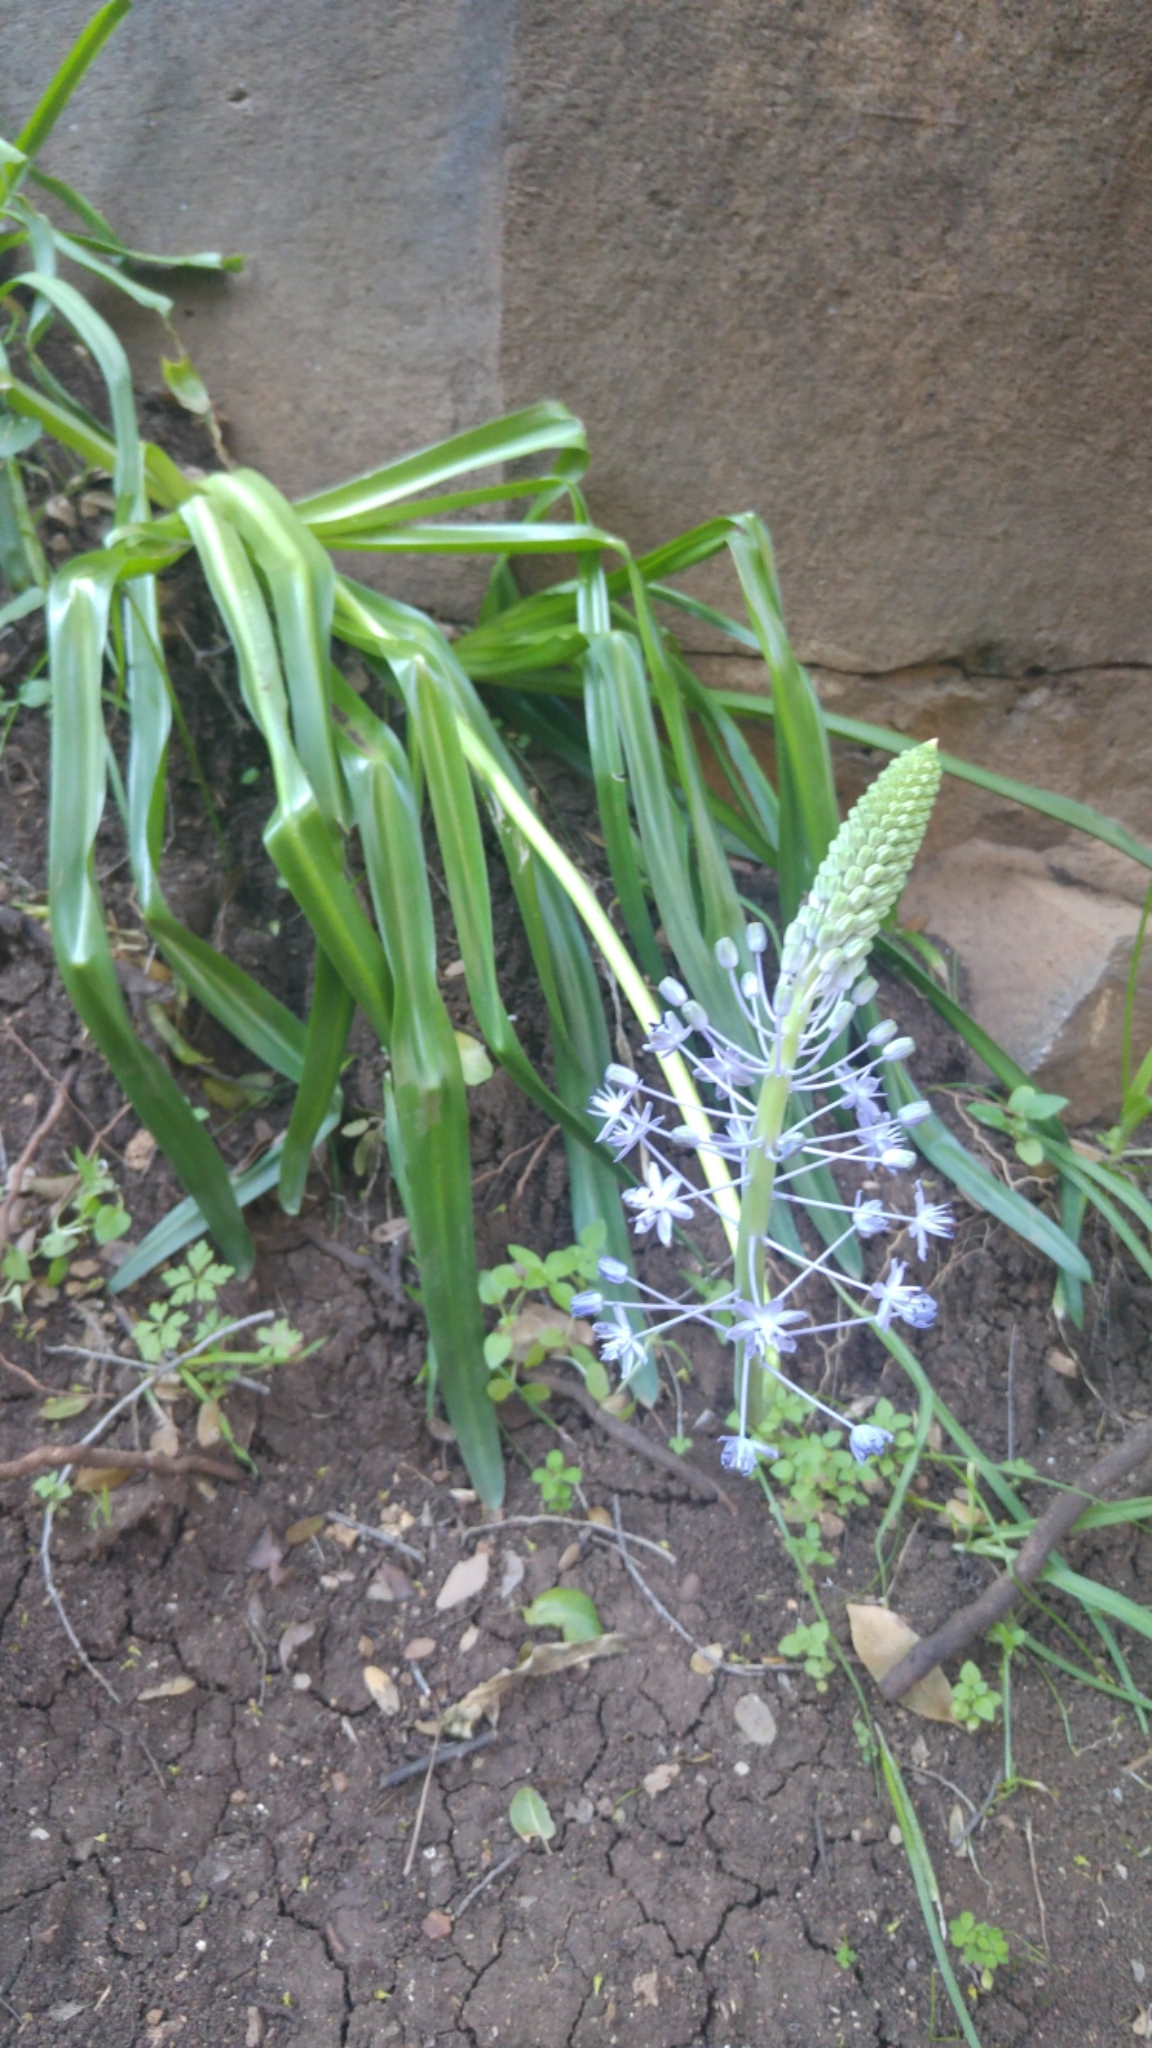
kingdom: Plantae
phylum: Tracheophyta
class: Liliopsida
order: Asparagales
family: Asparagaceae
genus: Scilla
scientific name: Scilla hyacinthoides
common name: Scilla
